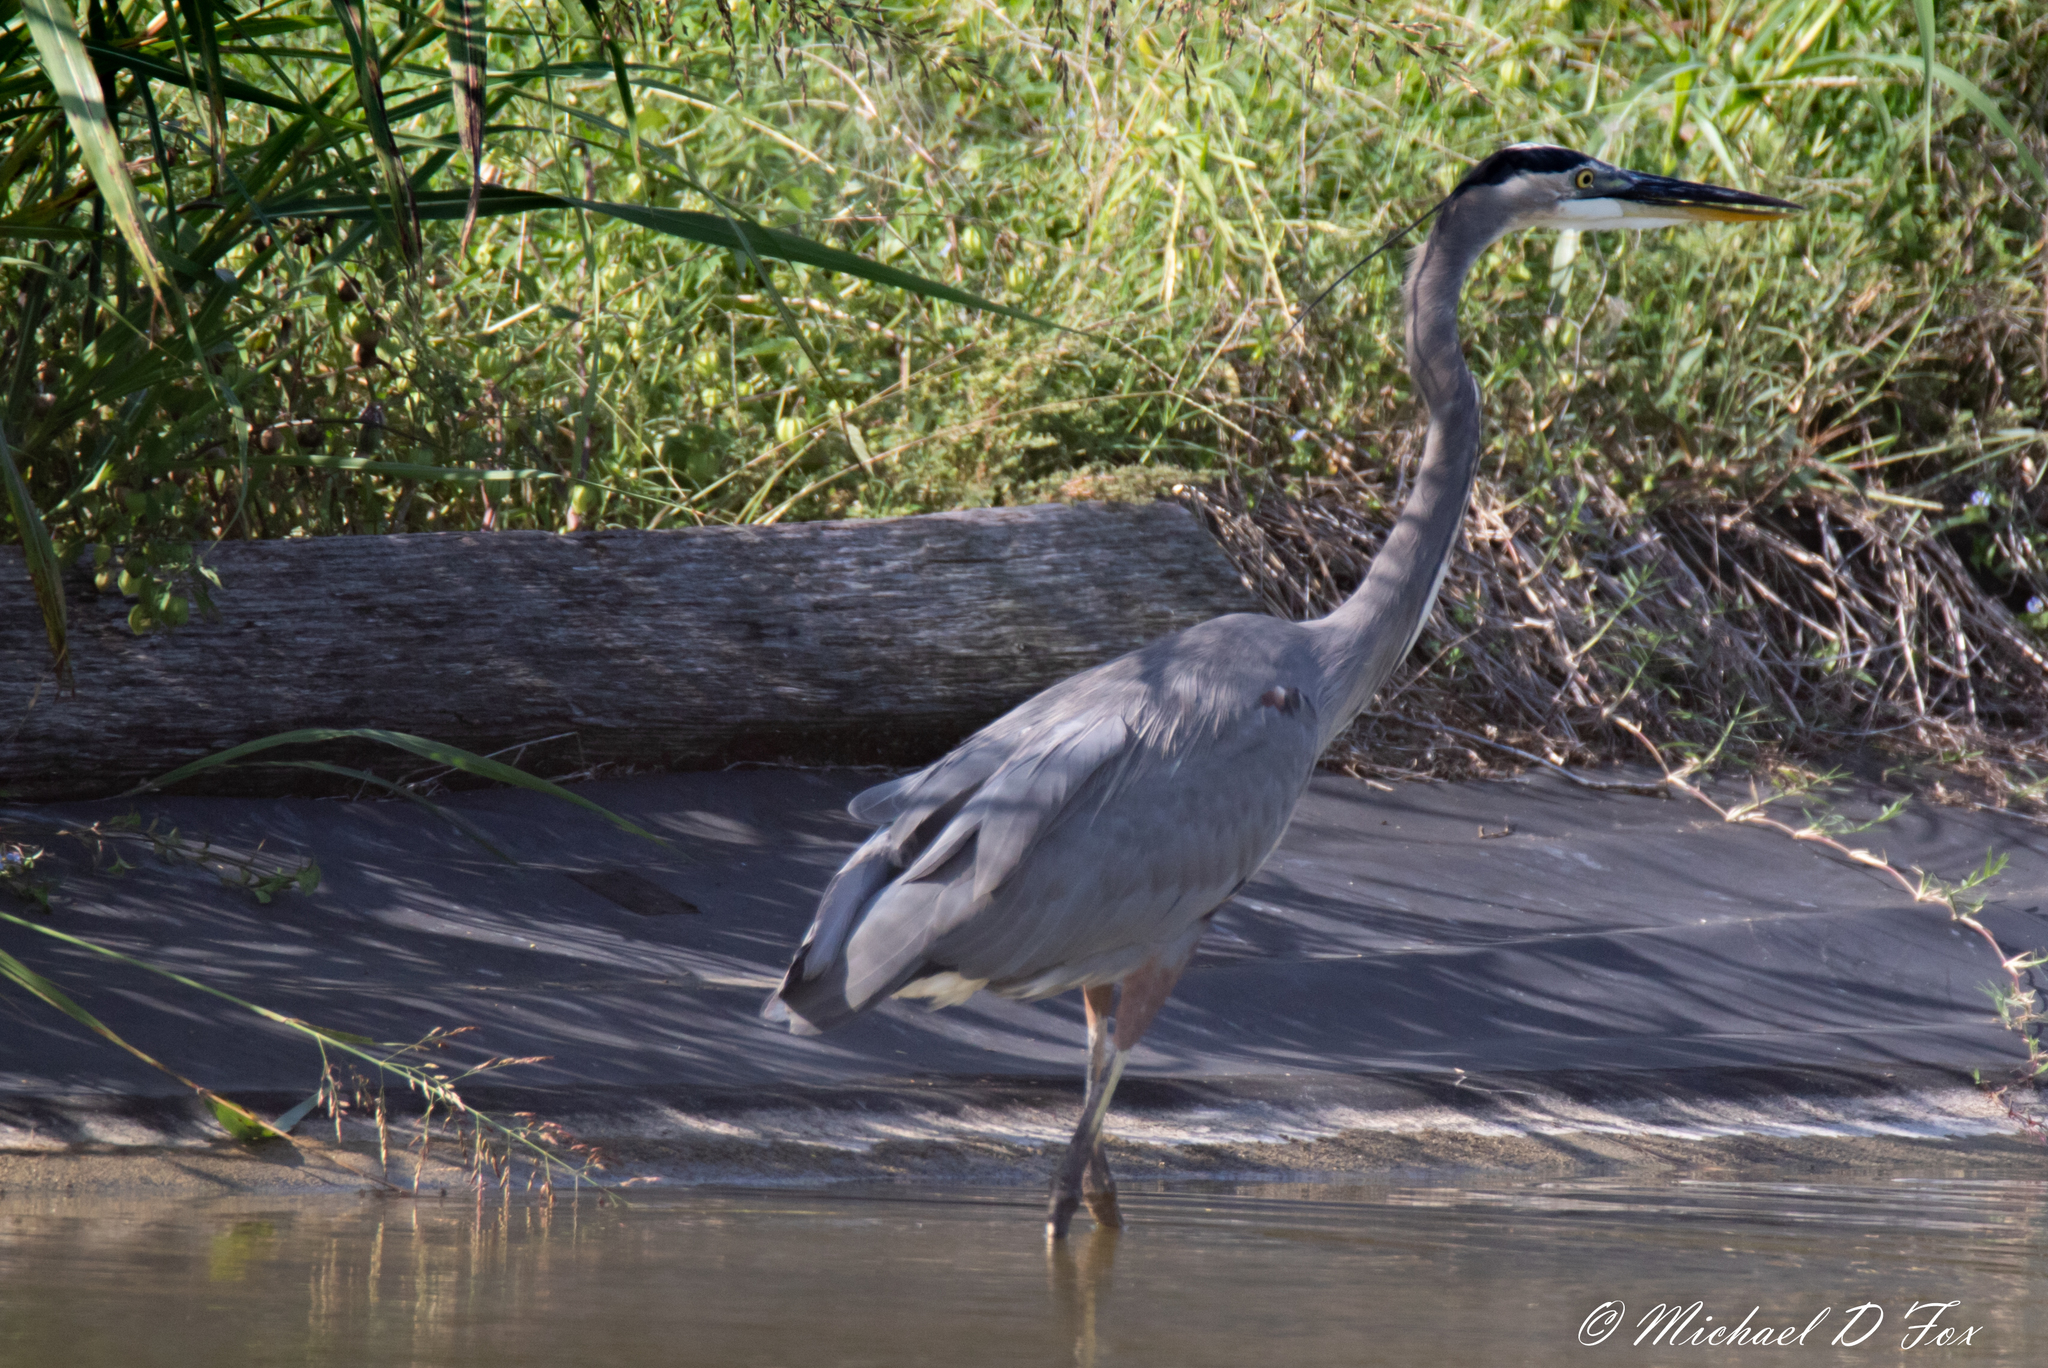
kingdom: Animalia
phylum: Chordata
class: Aves
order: Pelecaniformes
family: Ardeidae
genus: Ardea
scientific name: Ardea herodias
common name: Great blue heron
